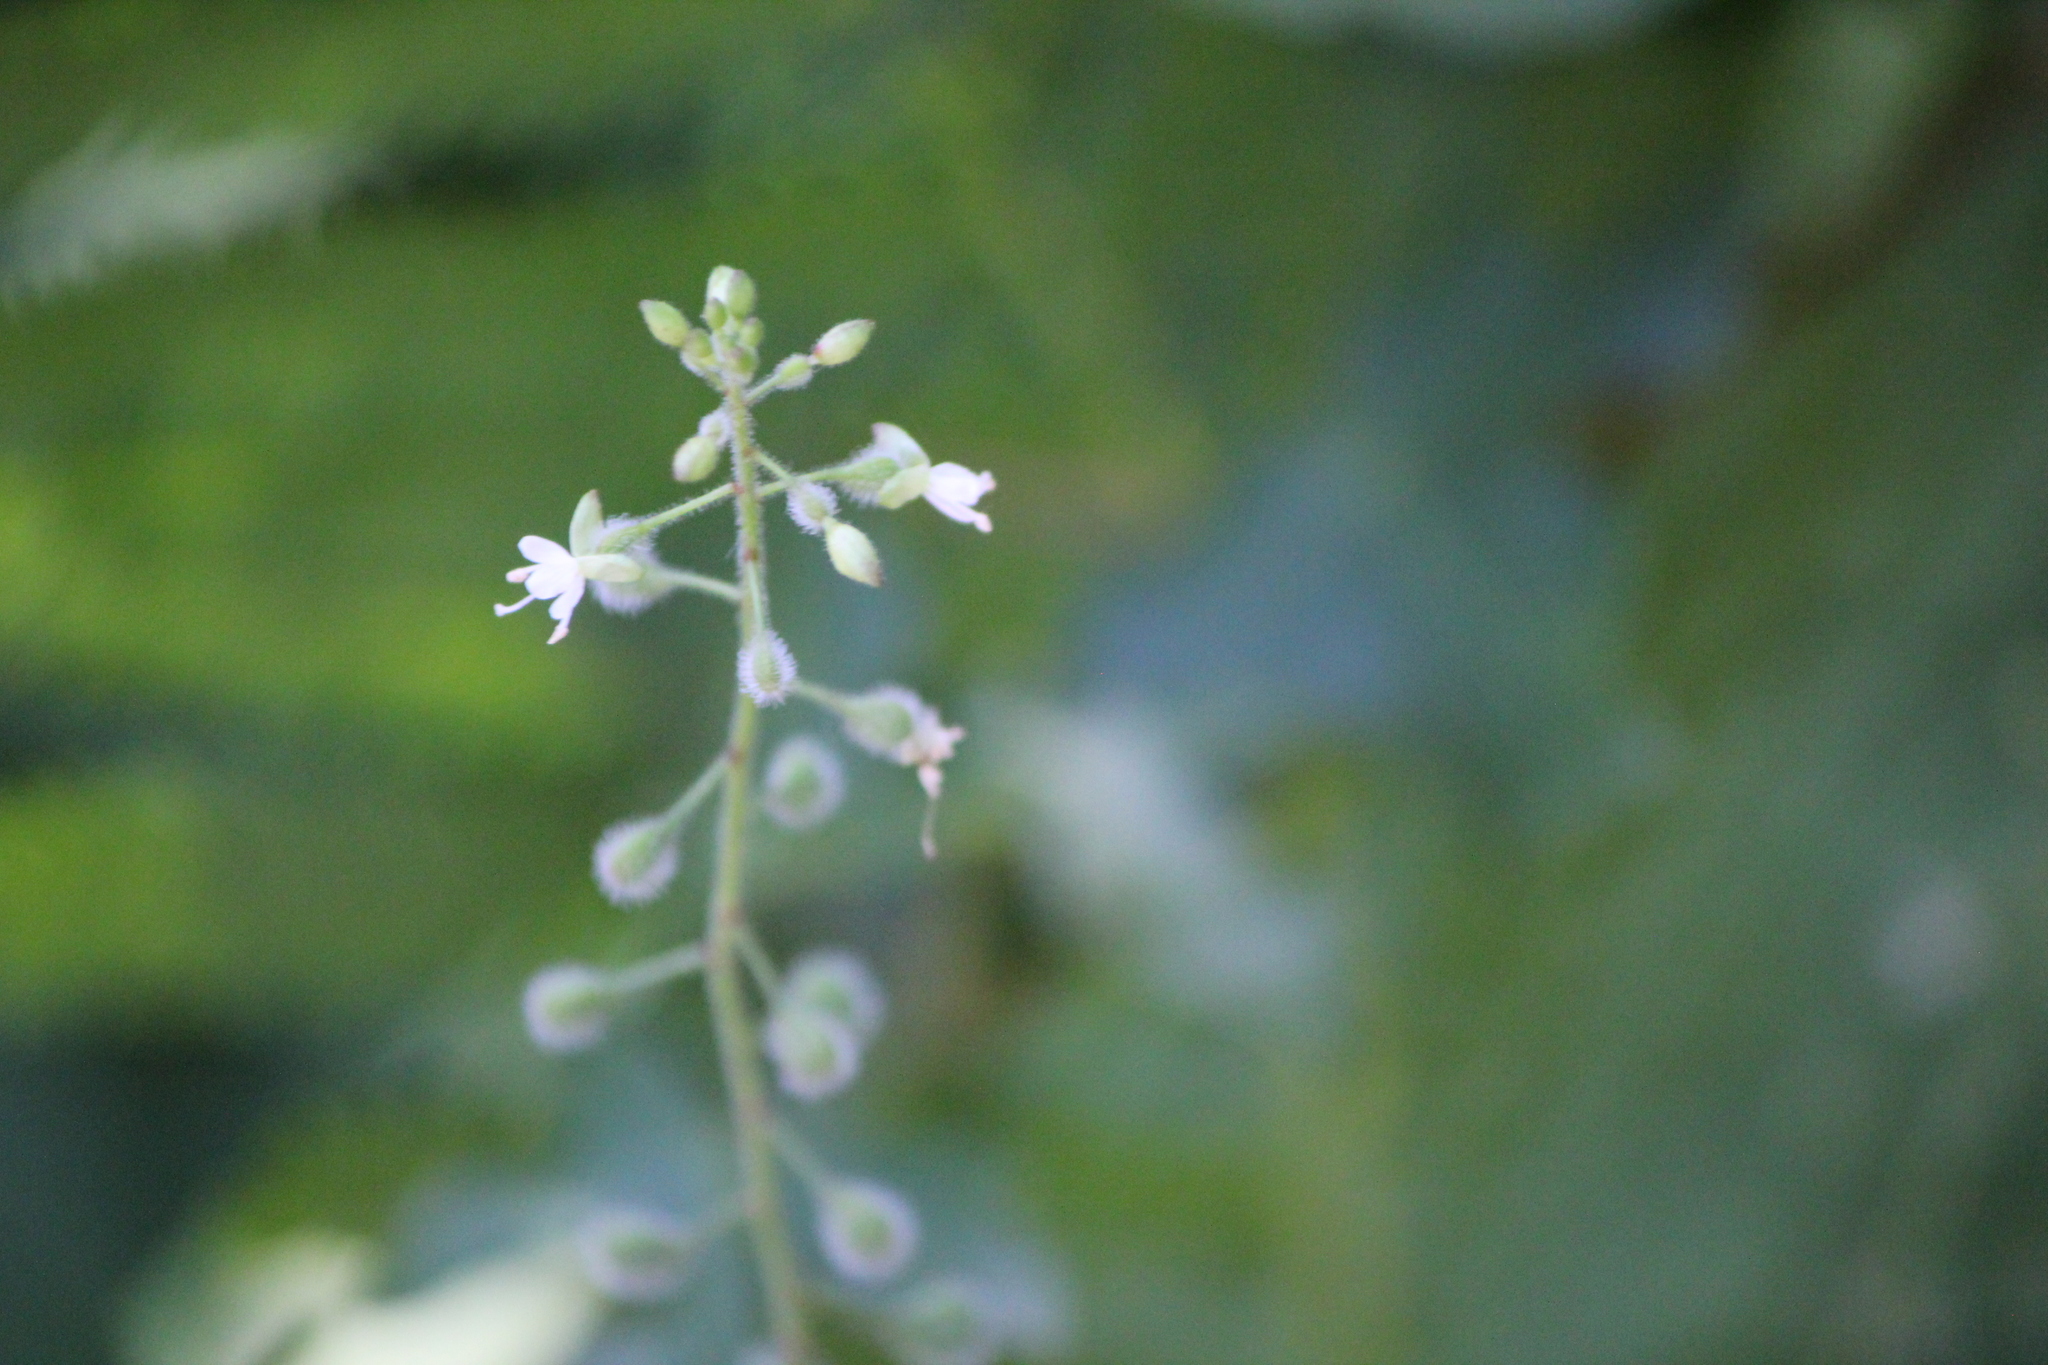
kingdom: Plantae
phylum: Tracheophyta
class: Magnoliopsida
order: Myrtales
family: Onagraceae
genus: Circaea
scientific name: Circaea canadensis
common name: Broad-leaved enchanter's nightshade
